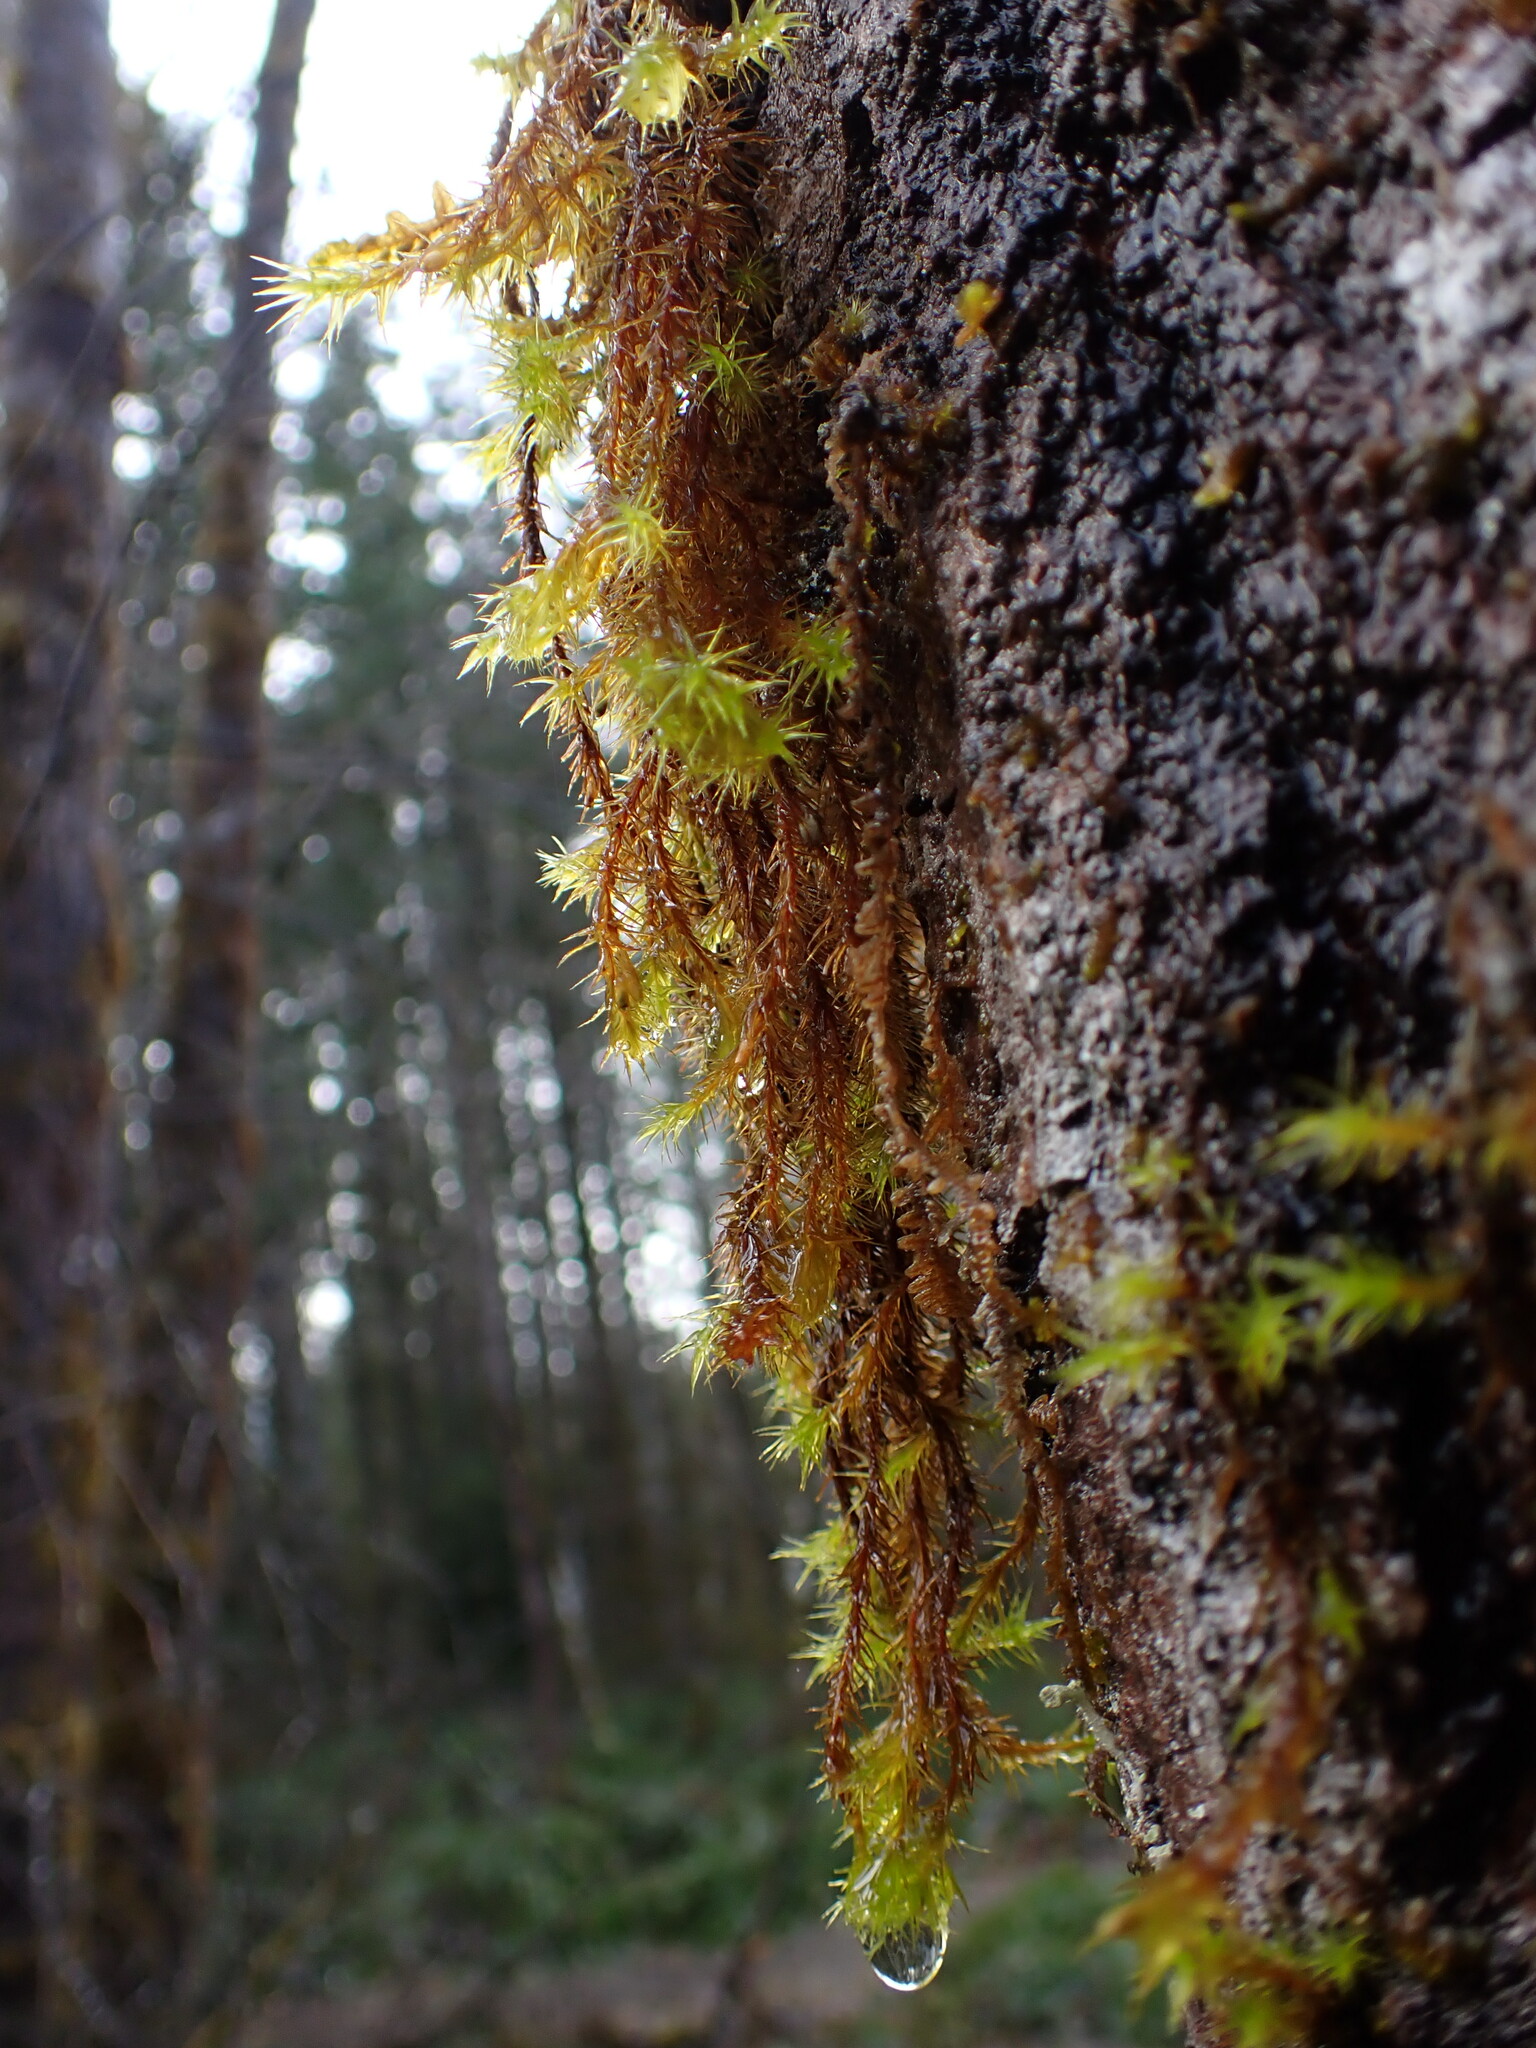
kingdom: Plantae
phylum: Bryophyta
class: Bryopsida
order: Orthotrichales
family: Orthotrichaceae
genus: Pulvigera
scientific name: Pulvigera pringlei
